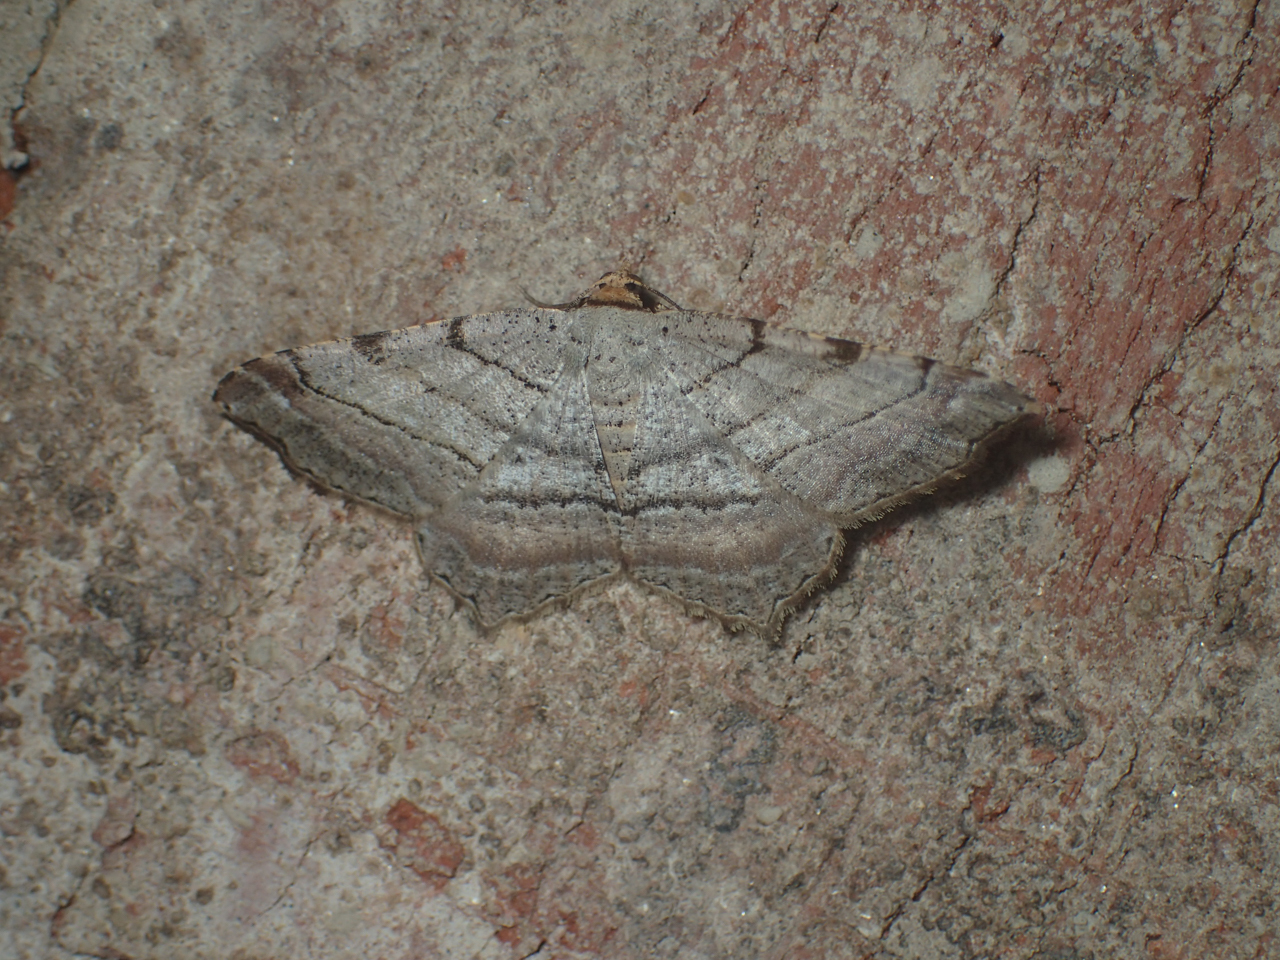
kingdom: Animalia
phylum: Arthropoda
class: Insecta
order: Lepidoptera
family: Geometridae
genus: Macaria
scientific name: Macaria multilineata
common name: Many-lined angle
